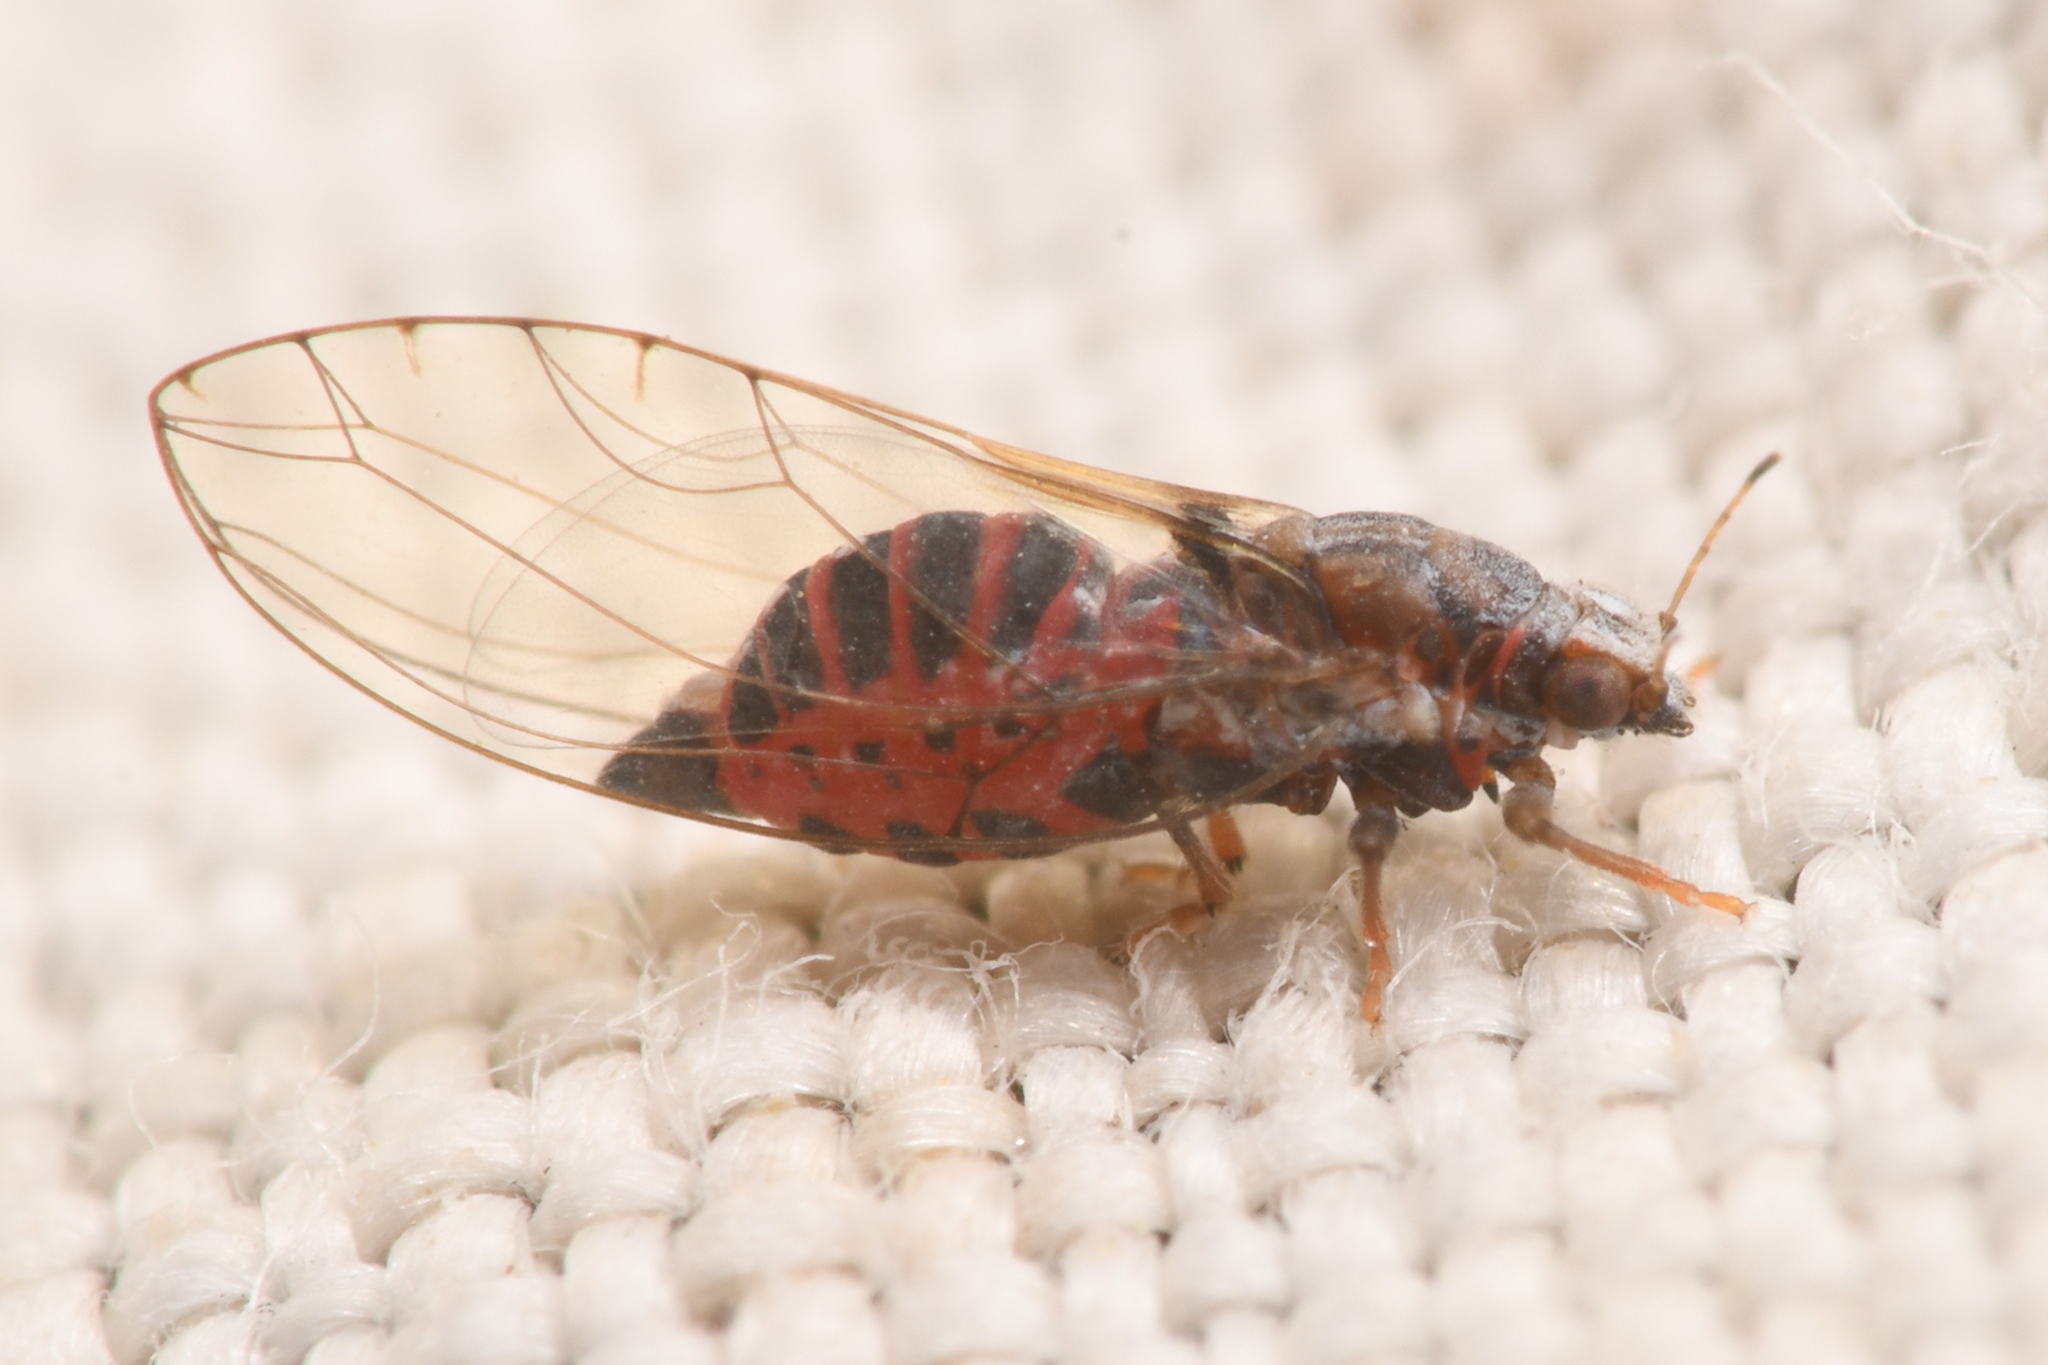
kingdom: Animalia
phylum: Arthropoda
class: Insecta
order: Hemiptera
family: Triozidae
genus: Trioza
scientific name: Trioza bakeri
